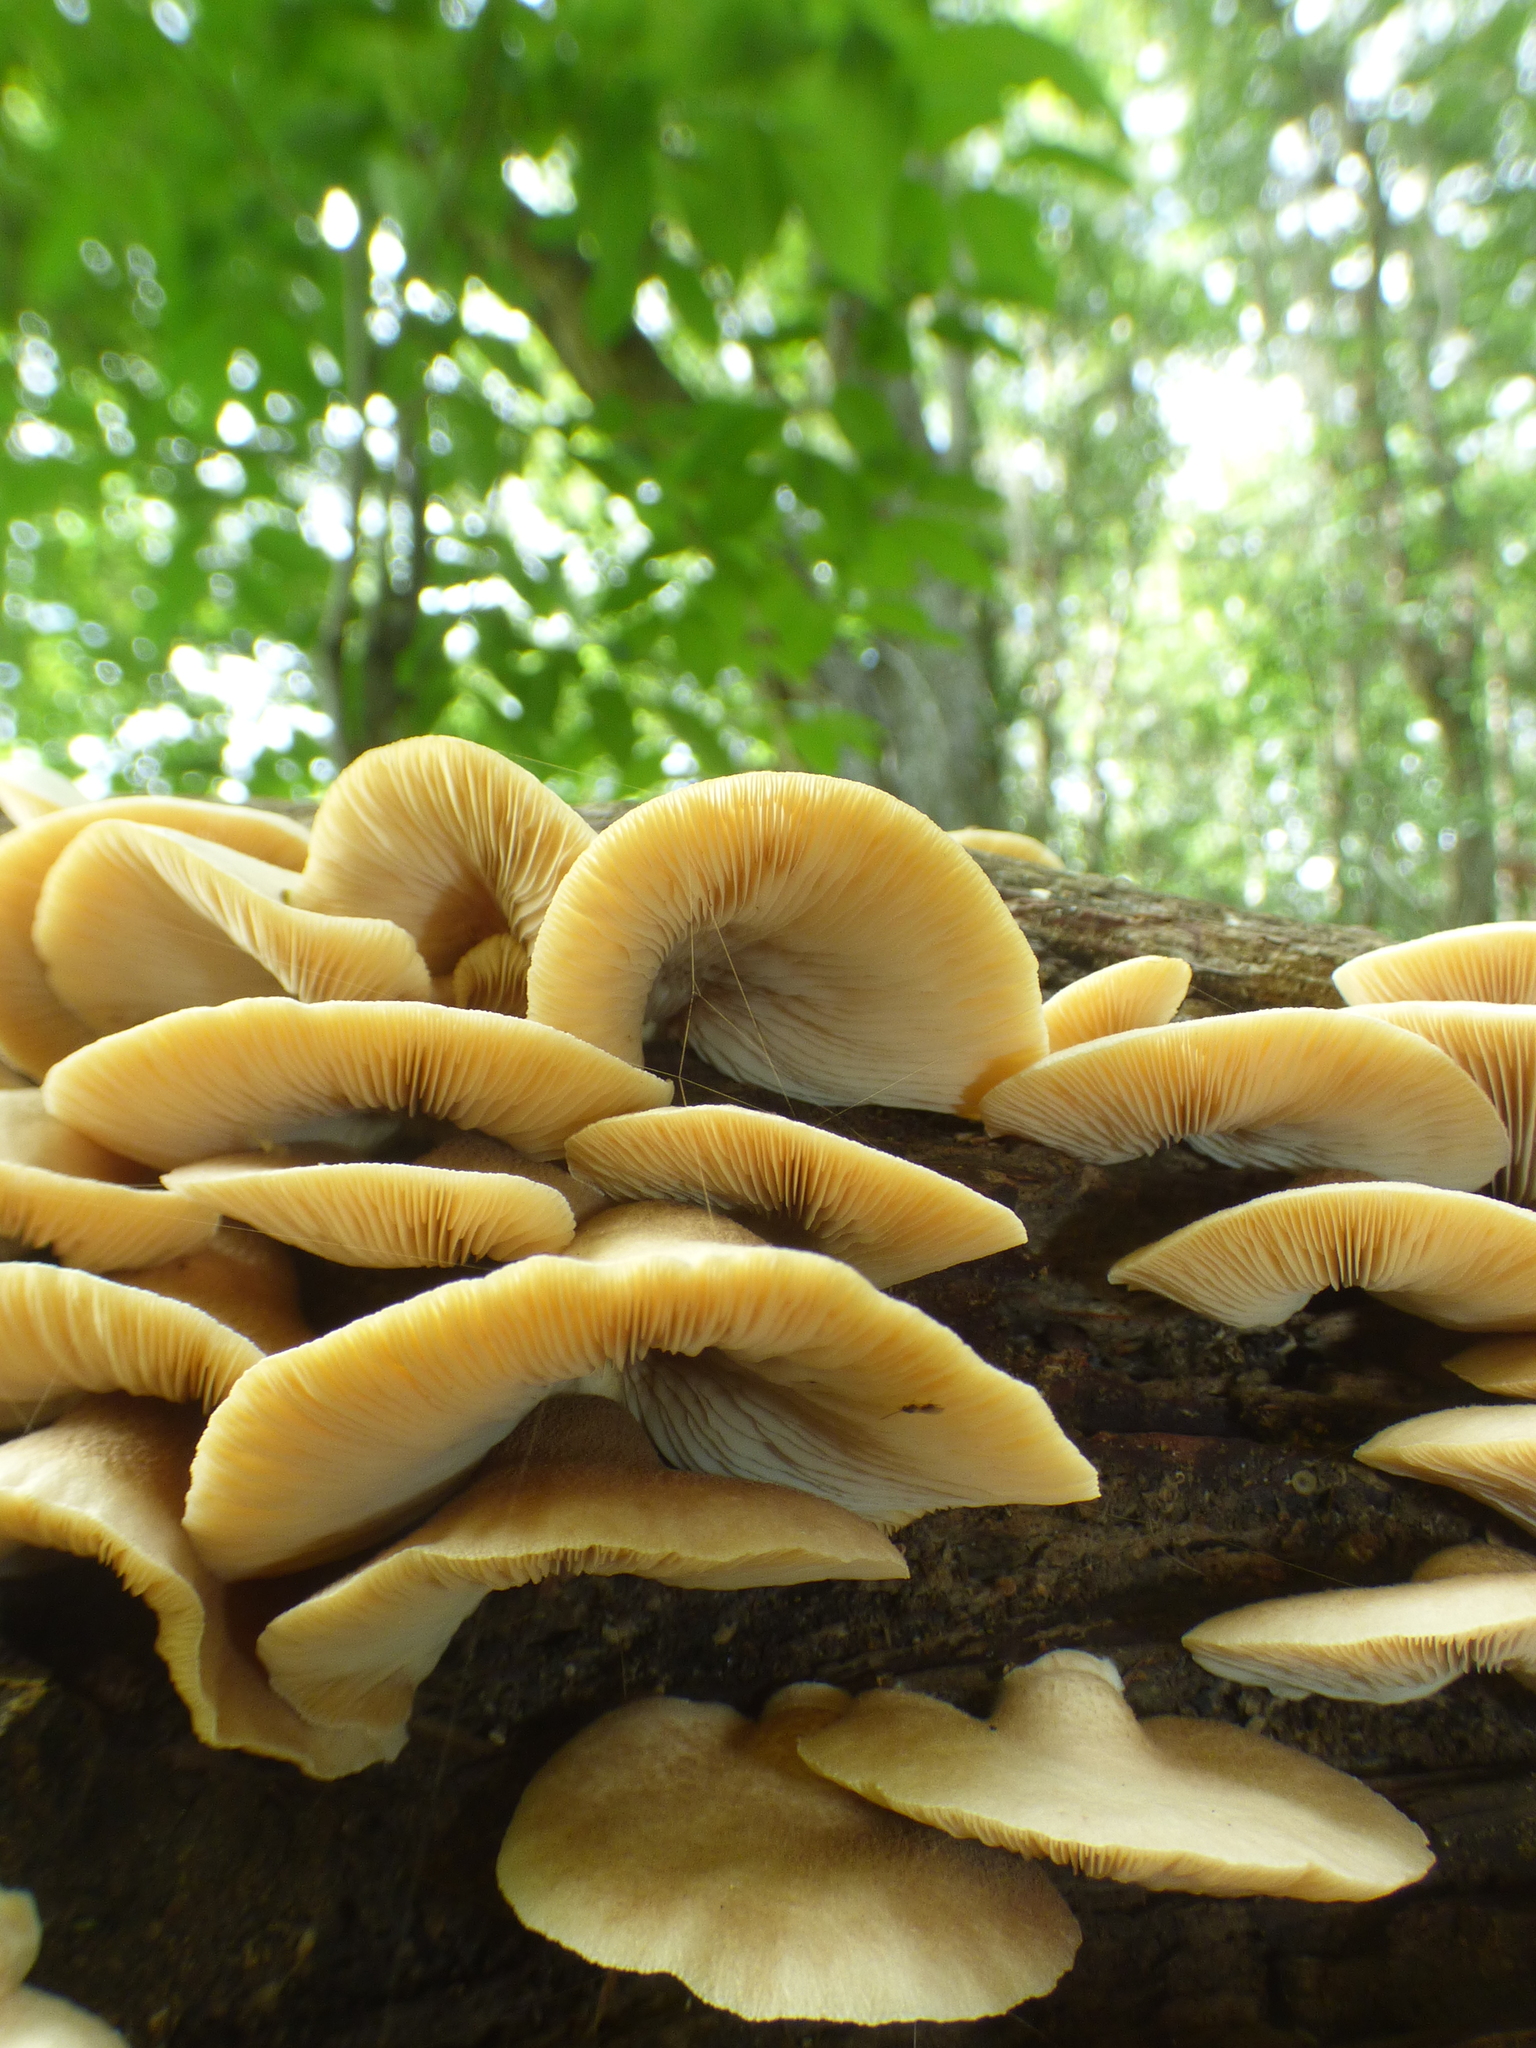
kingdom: Fungi
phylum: Basidiomycota
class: Agaricomycetes
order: Agaricales
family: Crepidotaceae
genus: Crepidotus
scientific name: Crepidotus applanatus
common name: Flat crep
